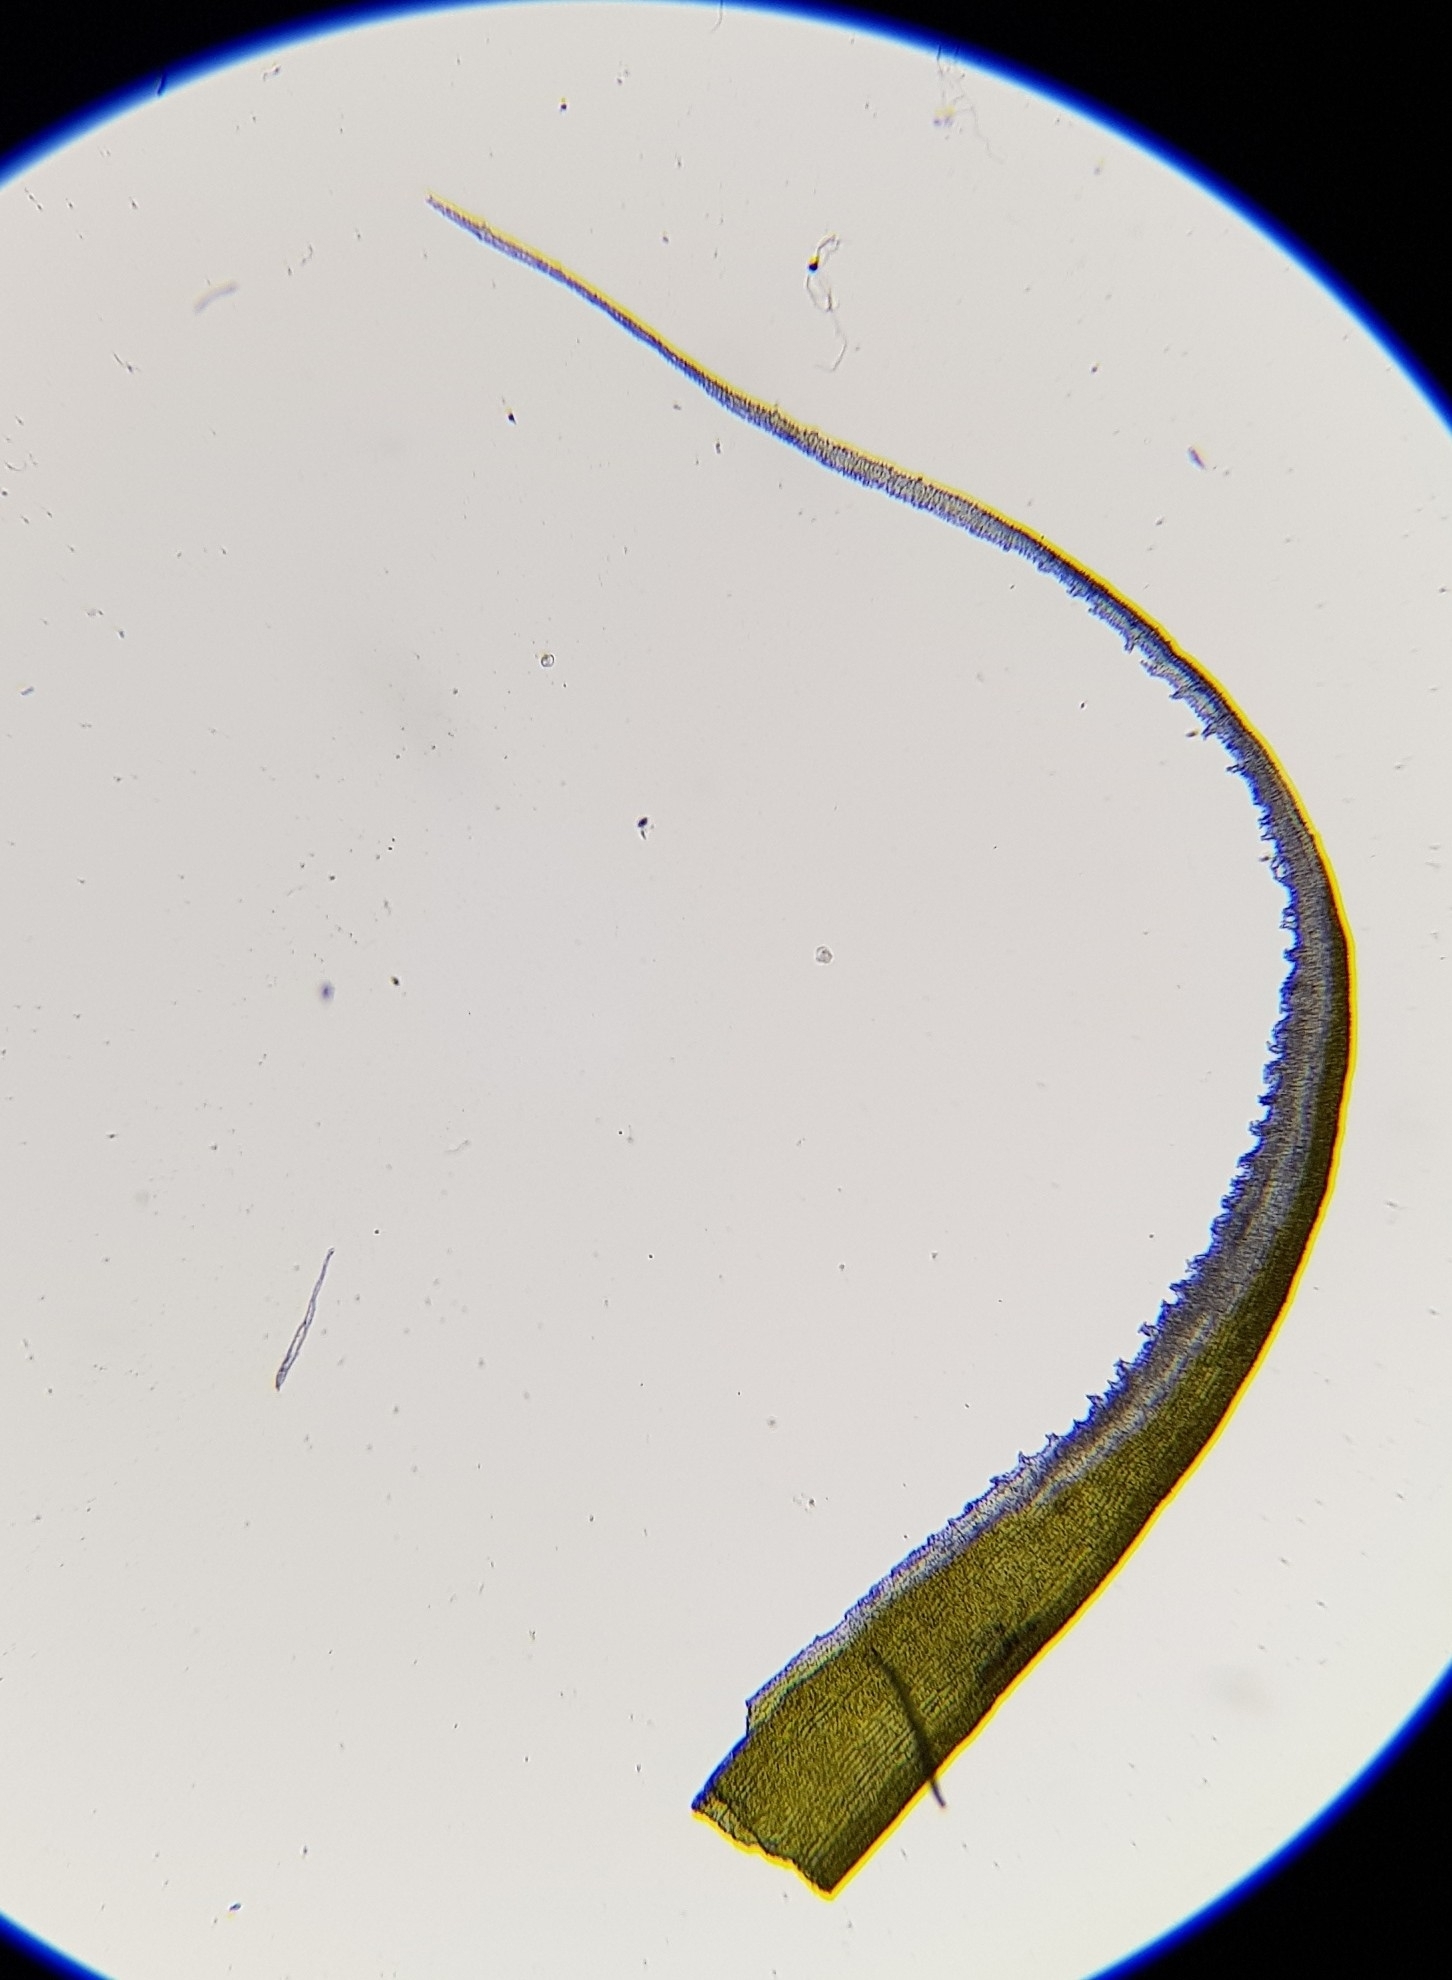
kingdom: Plantae
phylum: Bryophyta
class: Bryopsida
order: Grimmiales
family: Grimmiaceae
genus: Racomitrium
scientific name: Racomitrium lanuginosum
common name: Hoary rock moss
